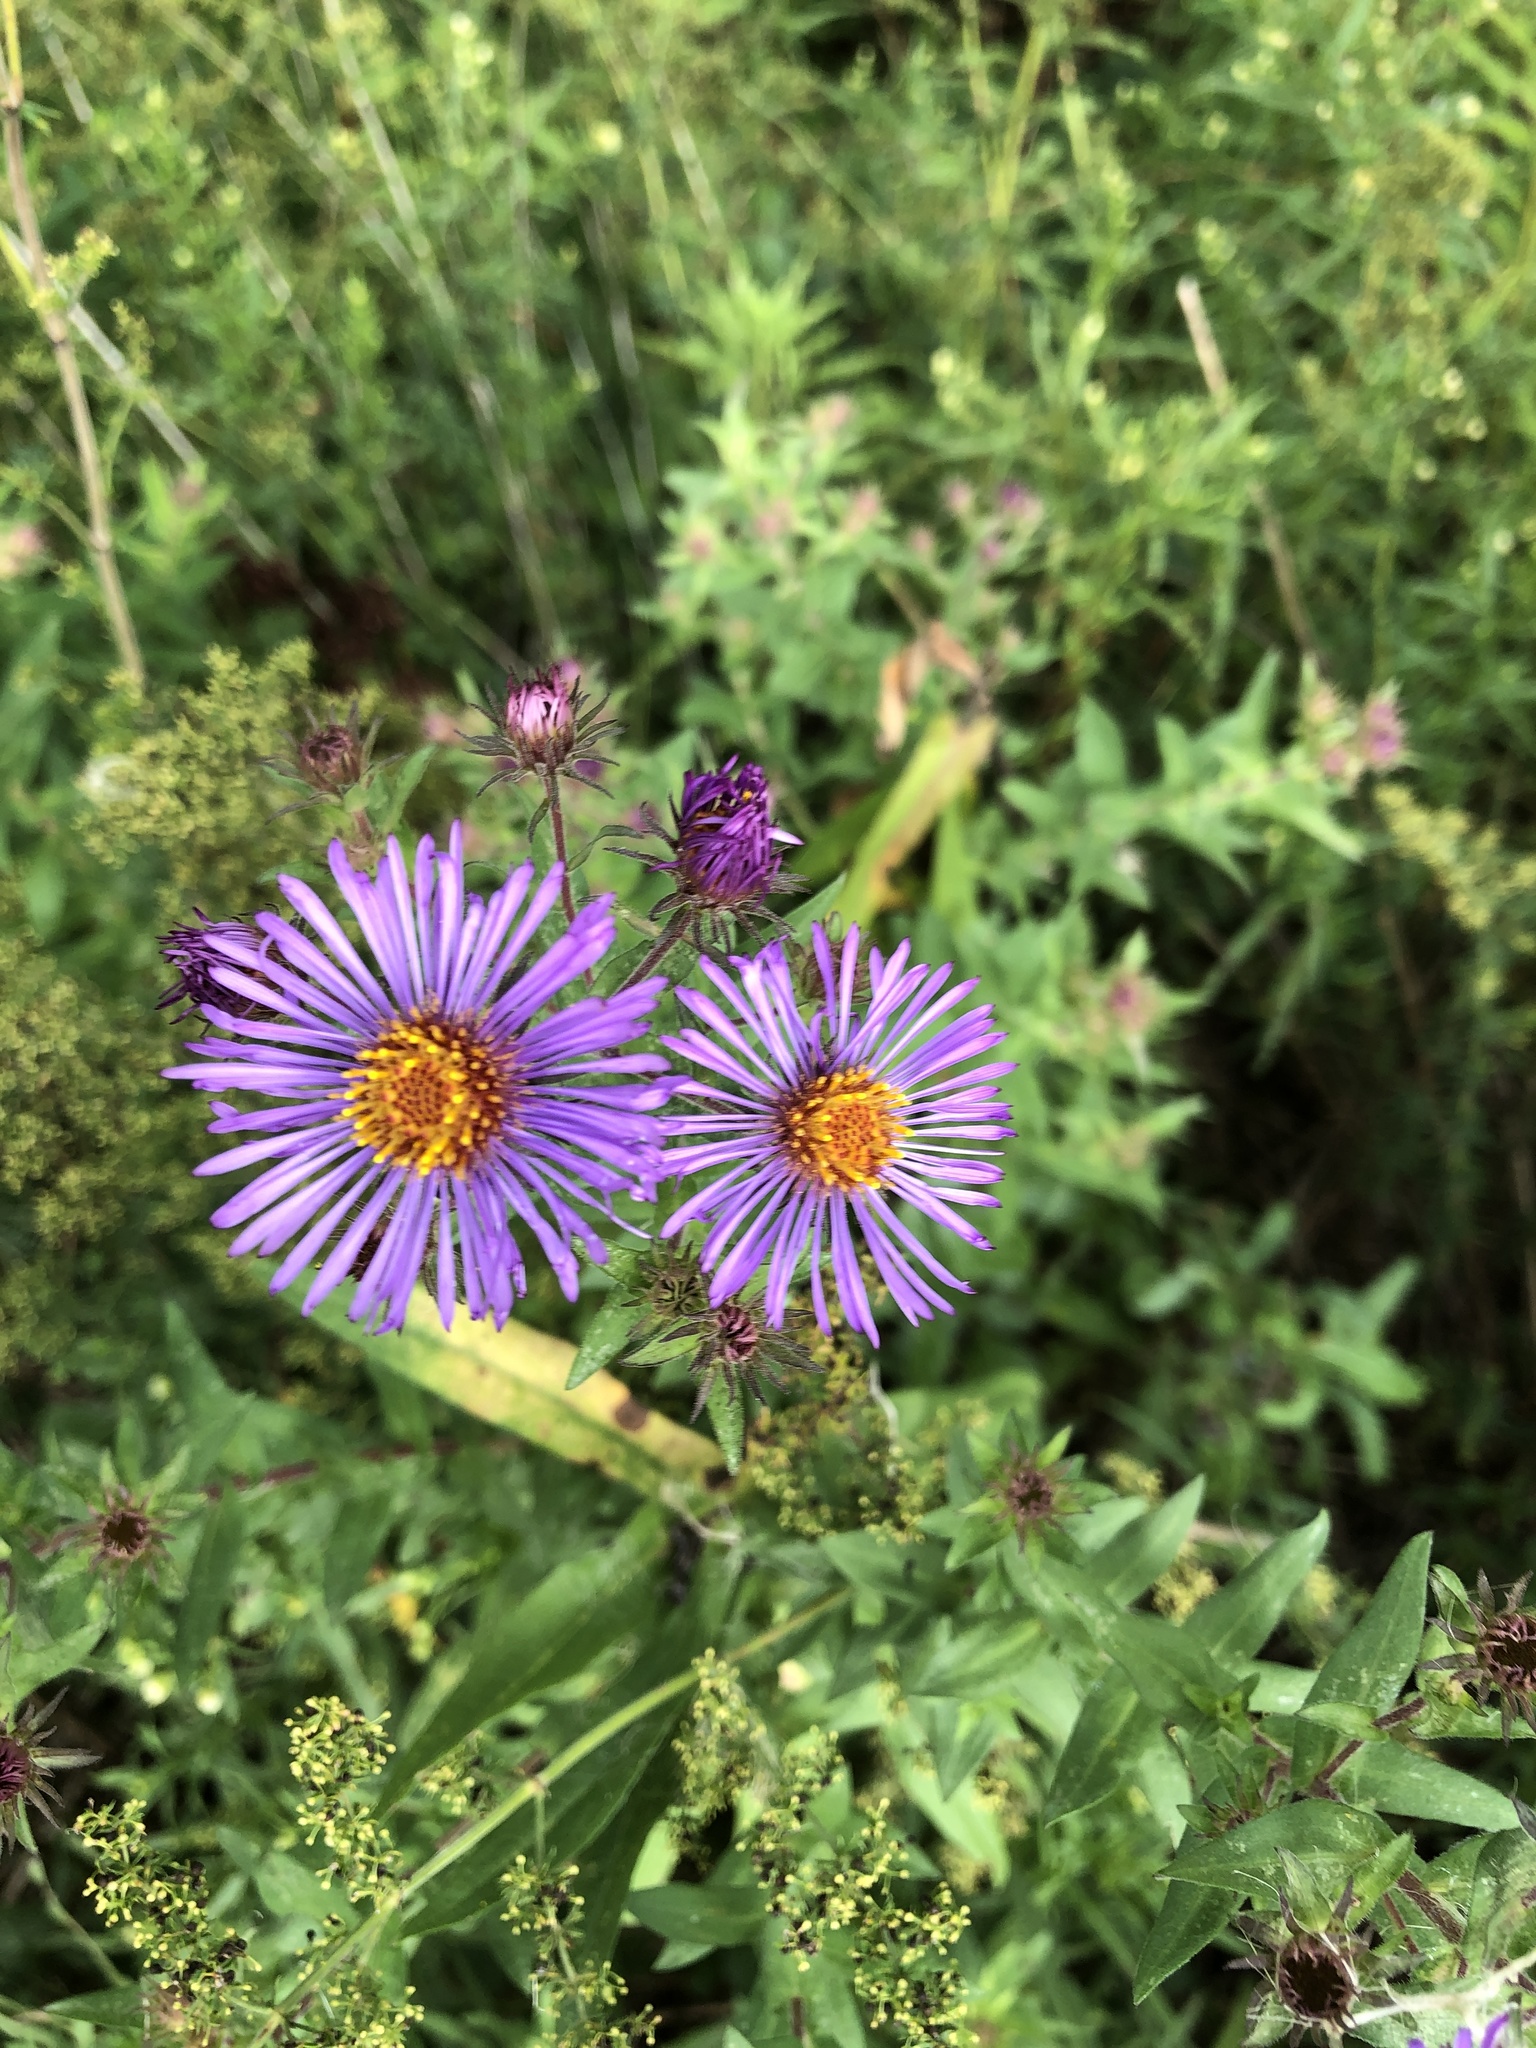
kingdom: Plantae
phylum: Tracheophyta
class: Magnoliopsida
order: Asterales
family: Asteraceae
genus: Symphyotrichum
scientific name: Symphyotrichum novae-angliae
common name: Michaelmas daisy
